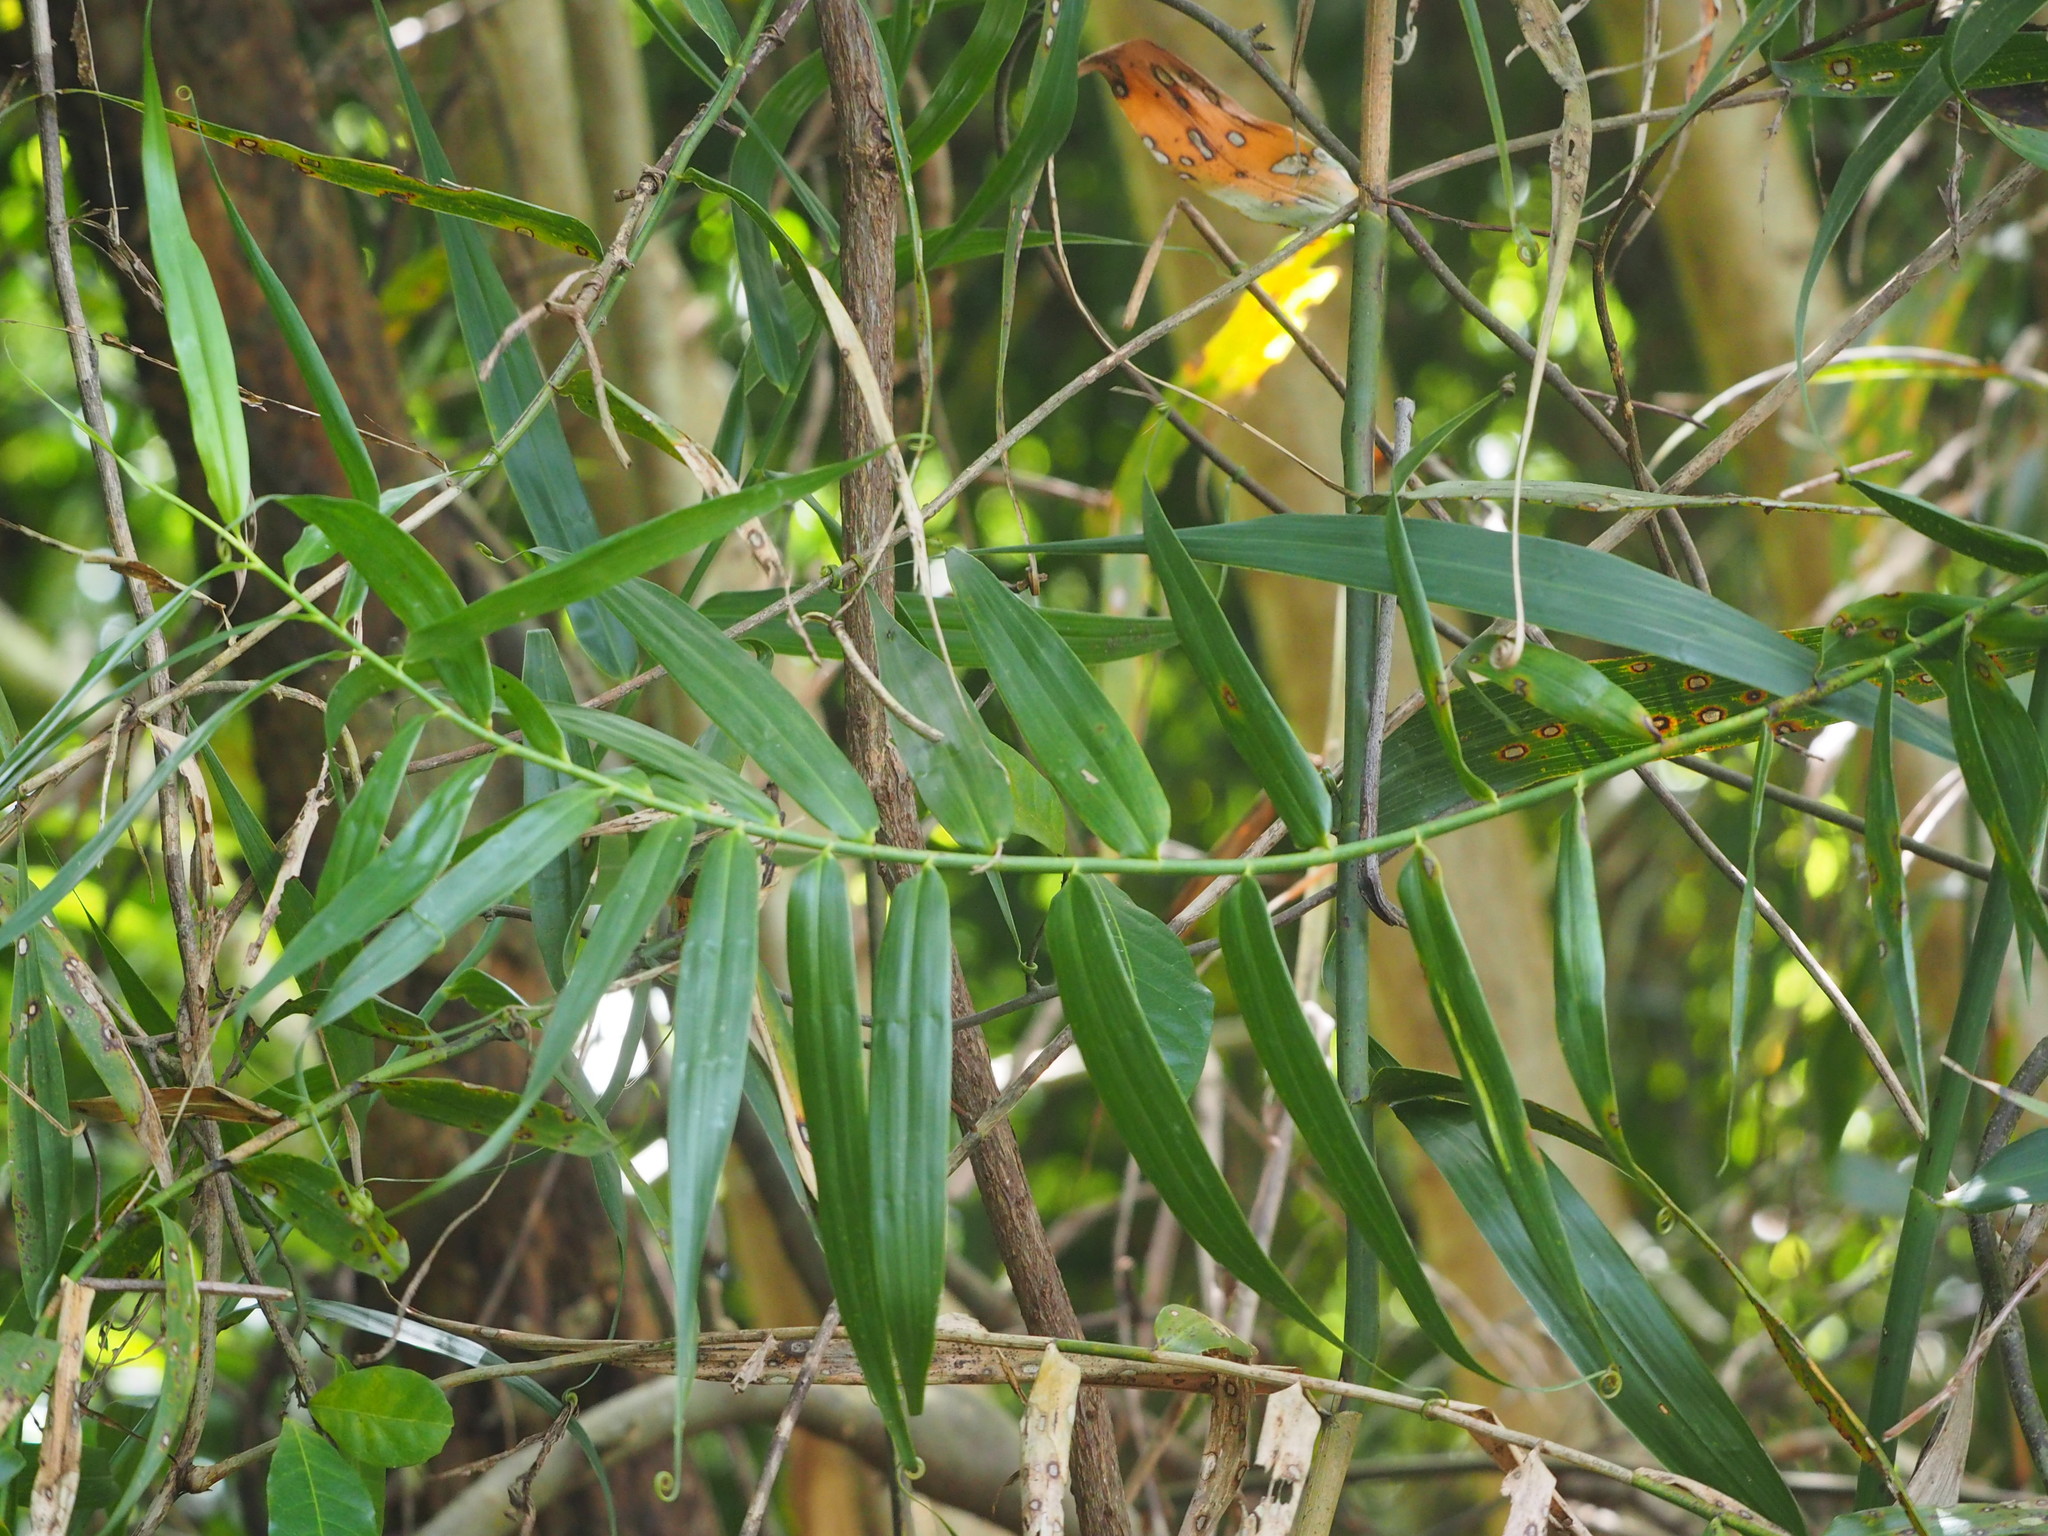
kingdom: Plantae
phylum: Tracheophyta
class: Liliopsida
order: Poales
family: Flagellariaceae
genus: Flagellaria
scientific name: Flagellaria indica
